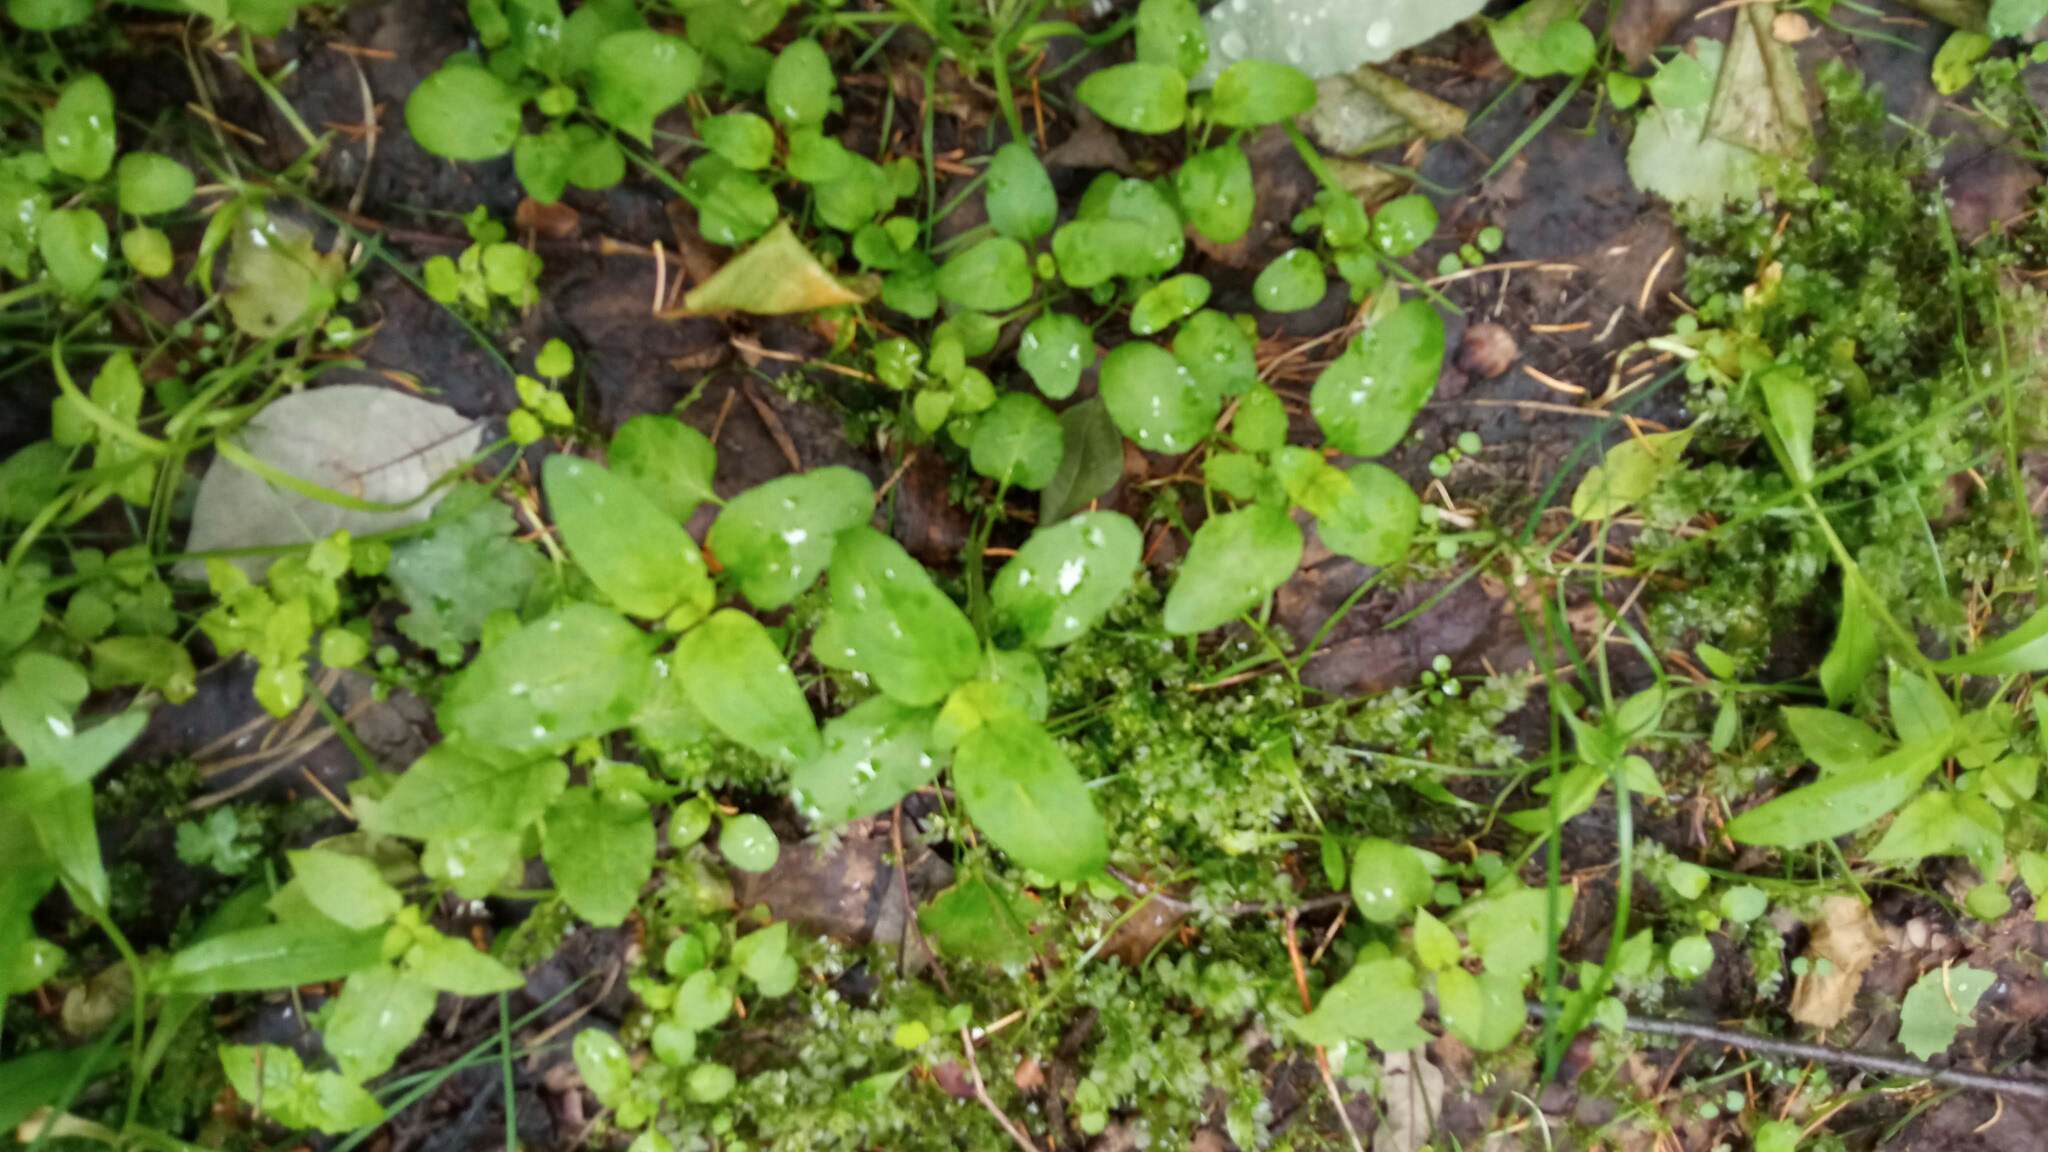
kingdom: Plantae
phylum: Tracheophyta
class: Magnoliopsida
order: Lamiales
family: Lamiaceae
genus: Prunella
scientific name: Prunella vulgaris
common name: Heal-all
